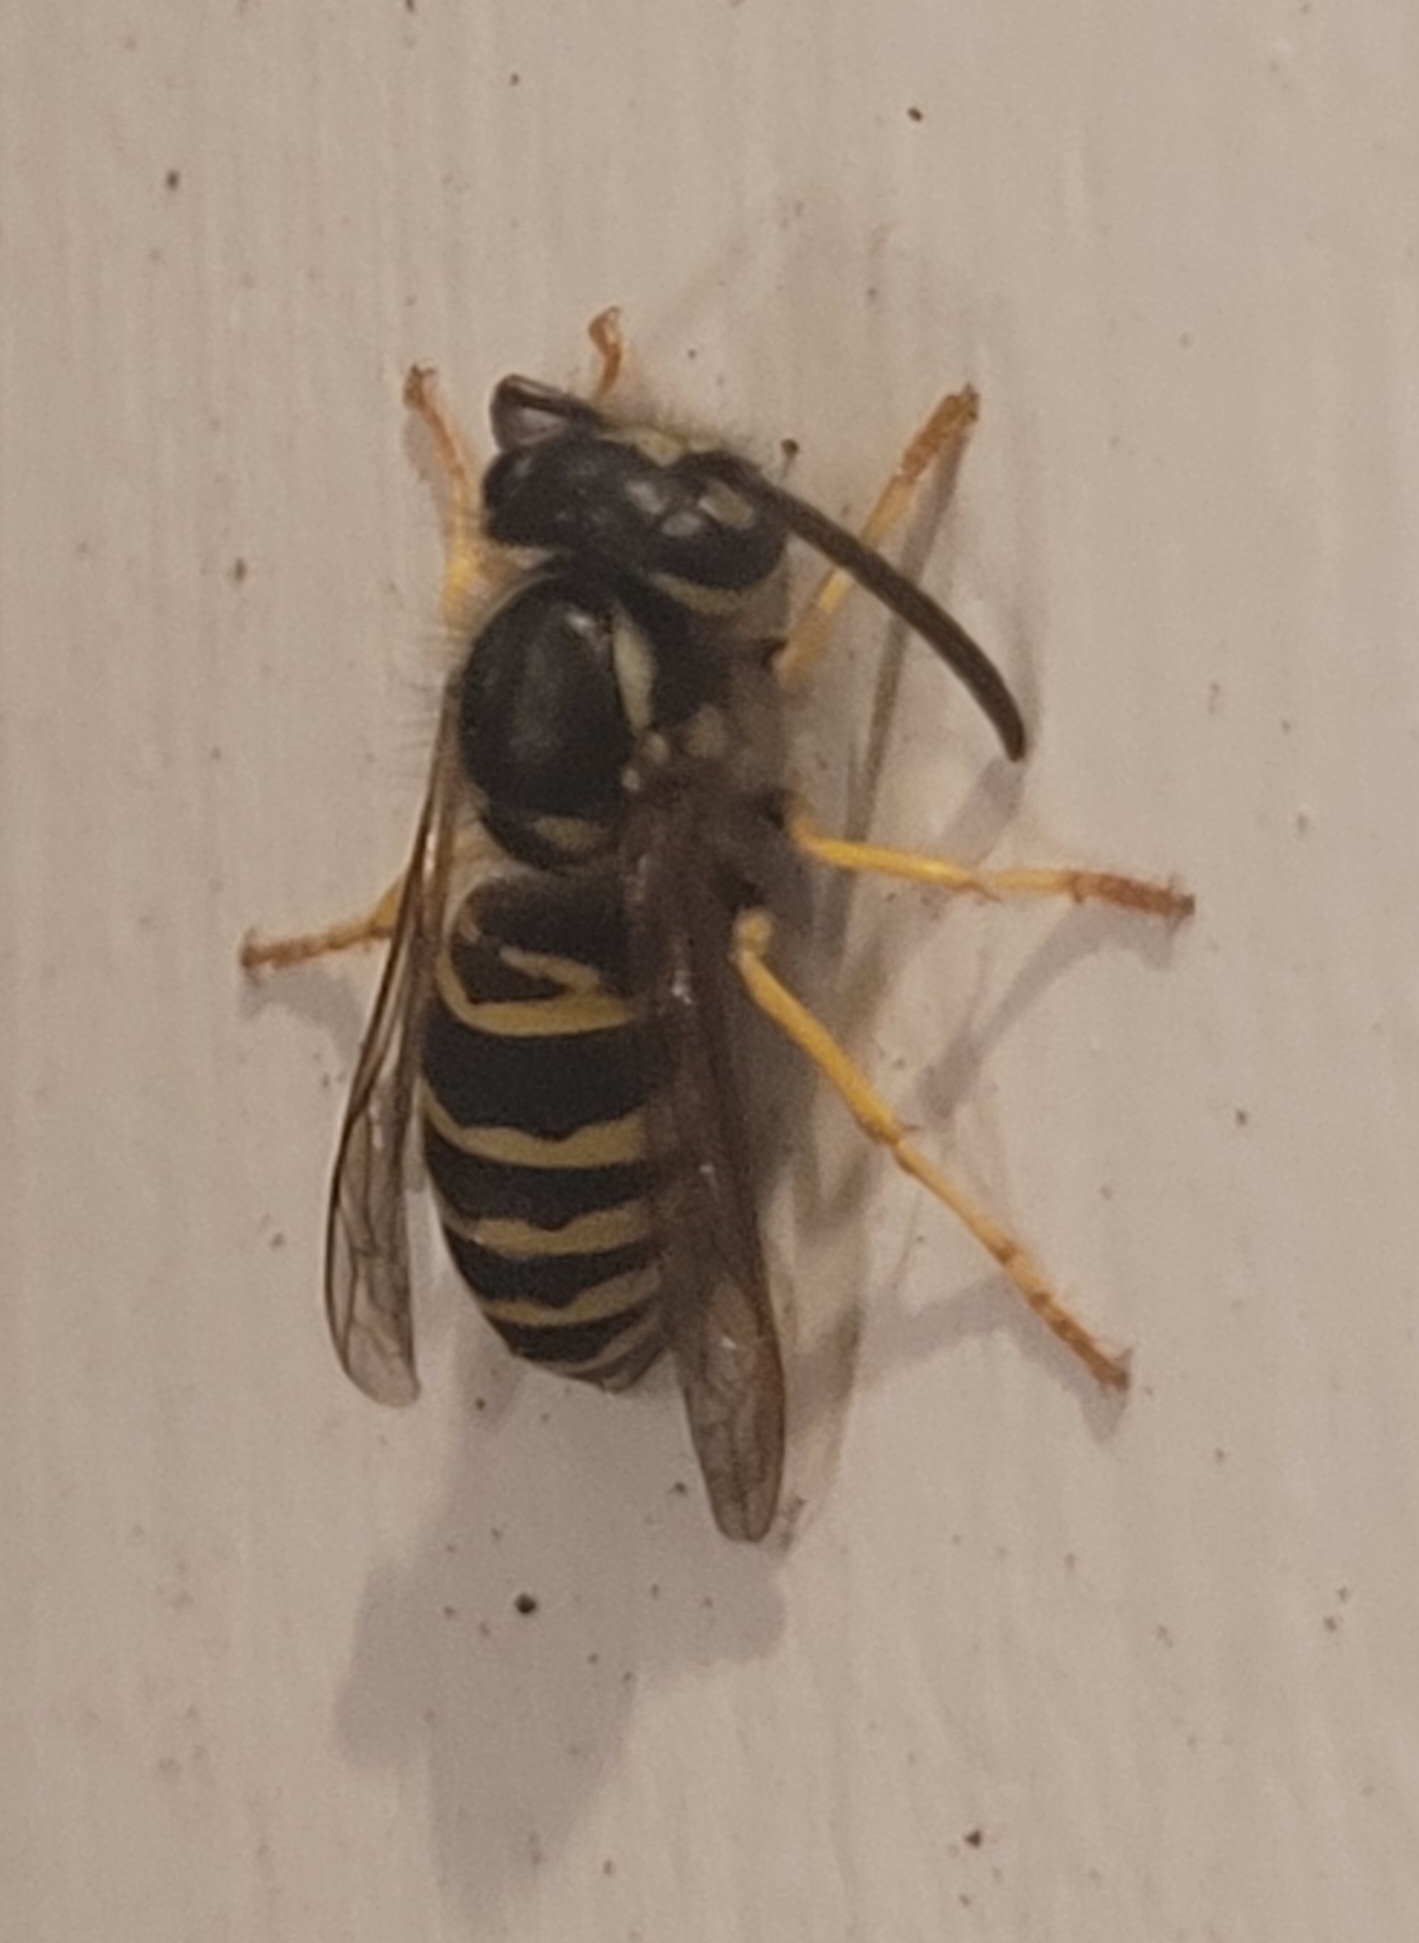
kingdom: Animalia
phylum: Arthropoda
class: Insecta
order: Hymenoptera
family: Vespidae
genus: Vespula
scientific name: Vespula maculifrons
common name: Eastern yellowjacket
